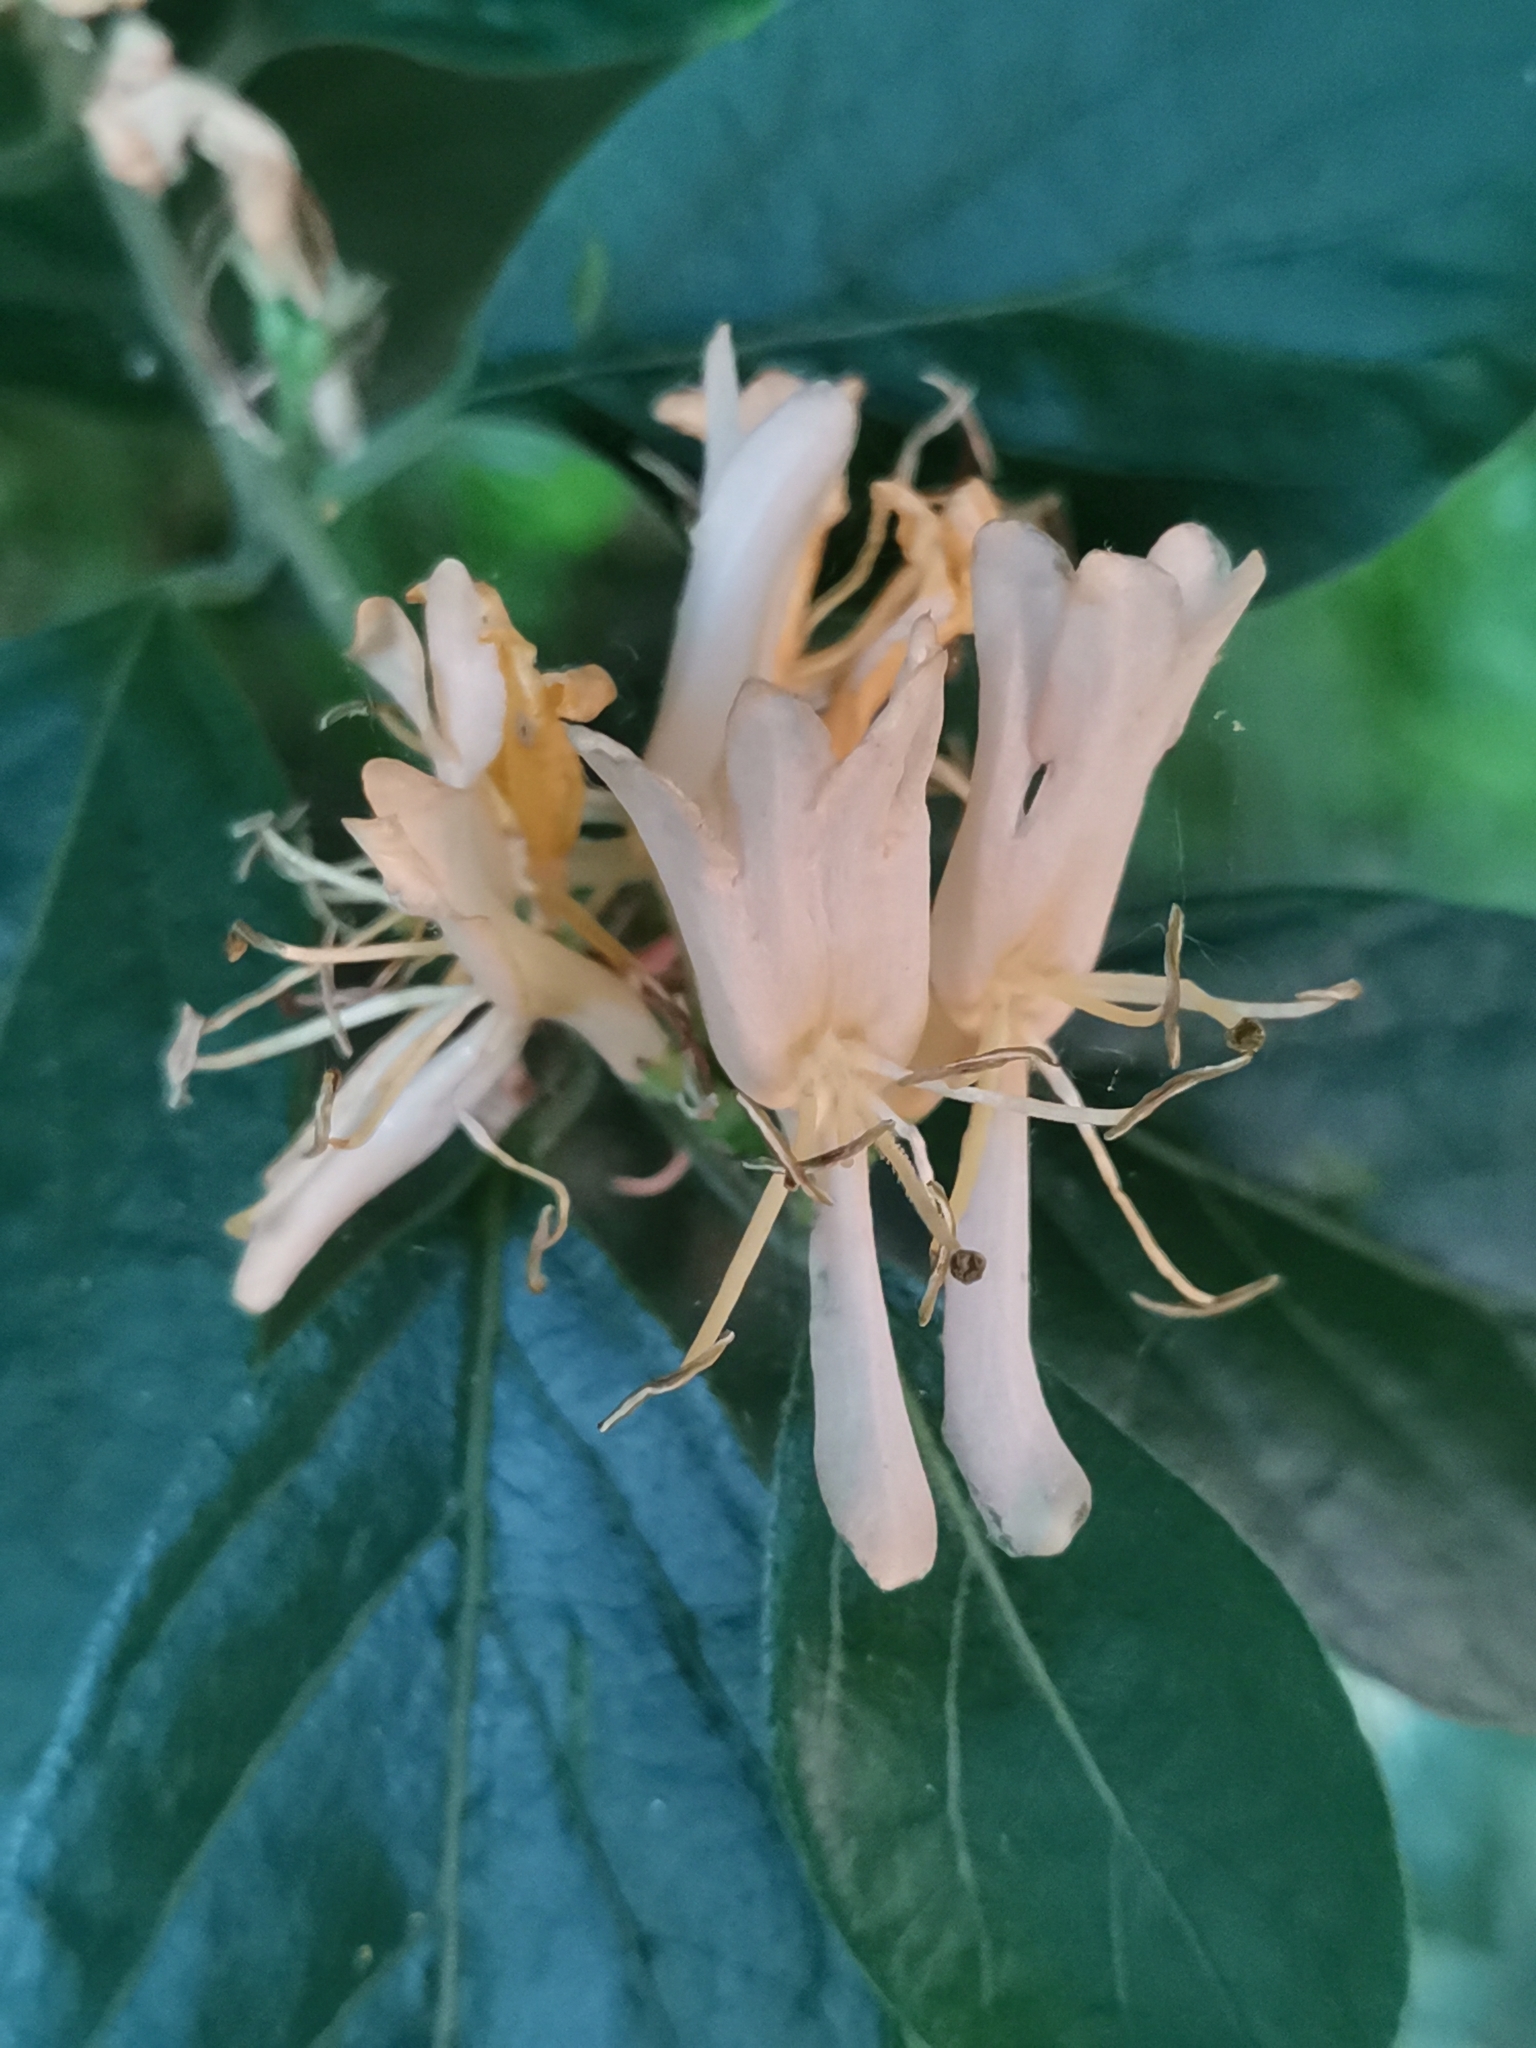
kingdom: Plantae
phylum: Tracheophyta
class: Magnoliopsida
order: Dipsacales
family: Caprifoliaceae
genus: Lonicera
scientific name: Lonicera maackii
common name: Amur honeysuckle
